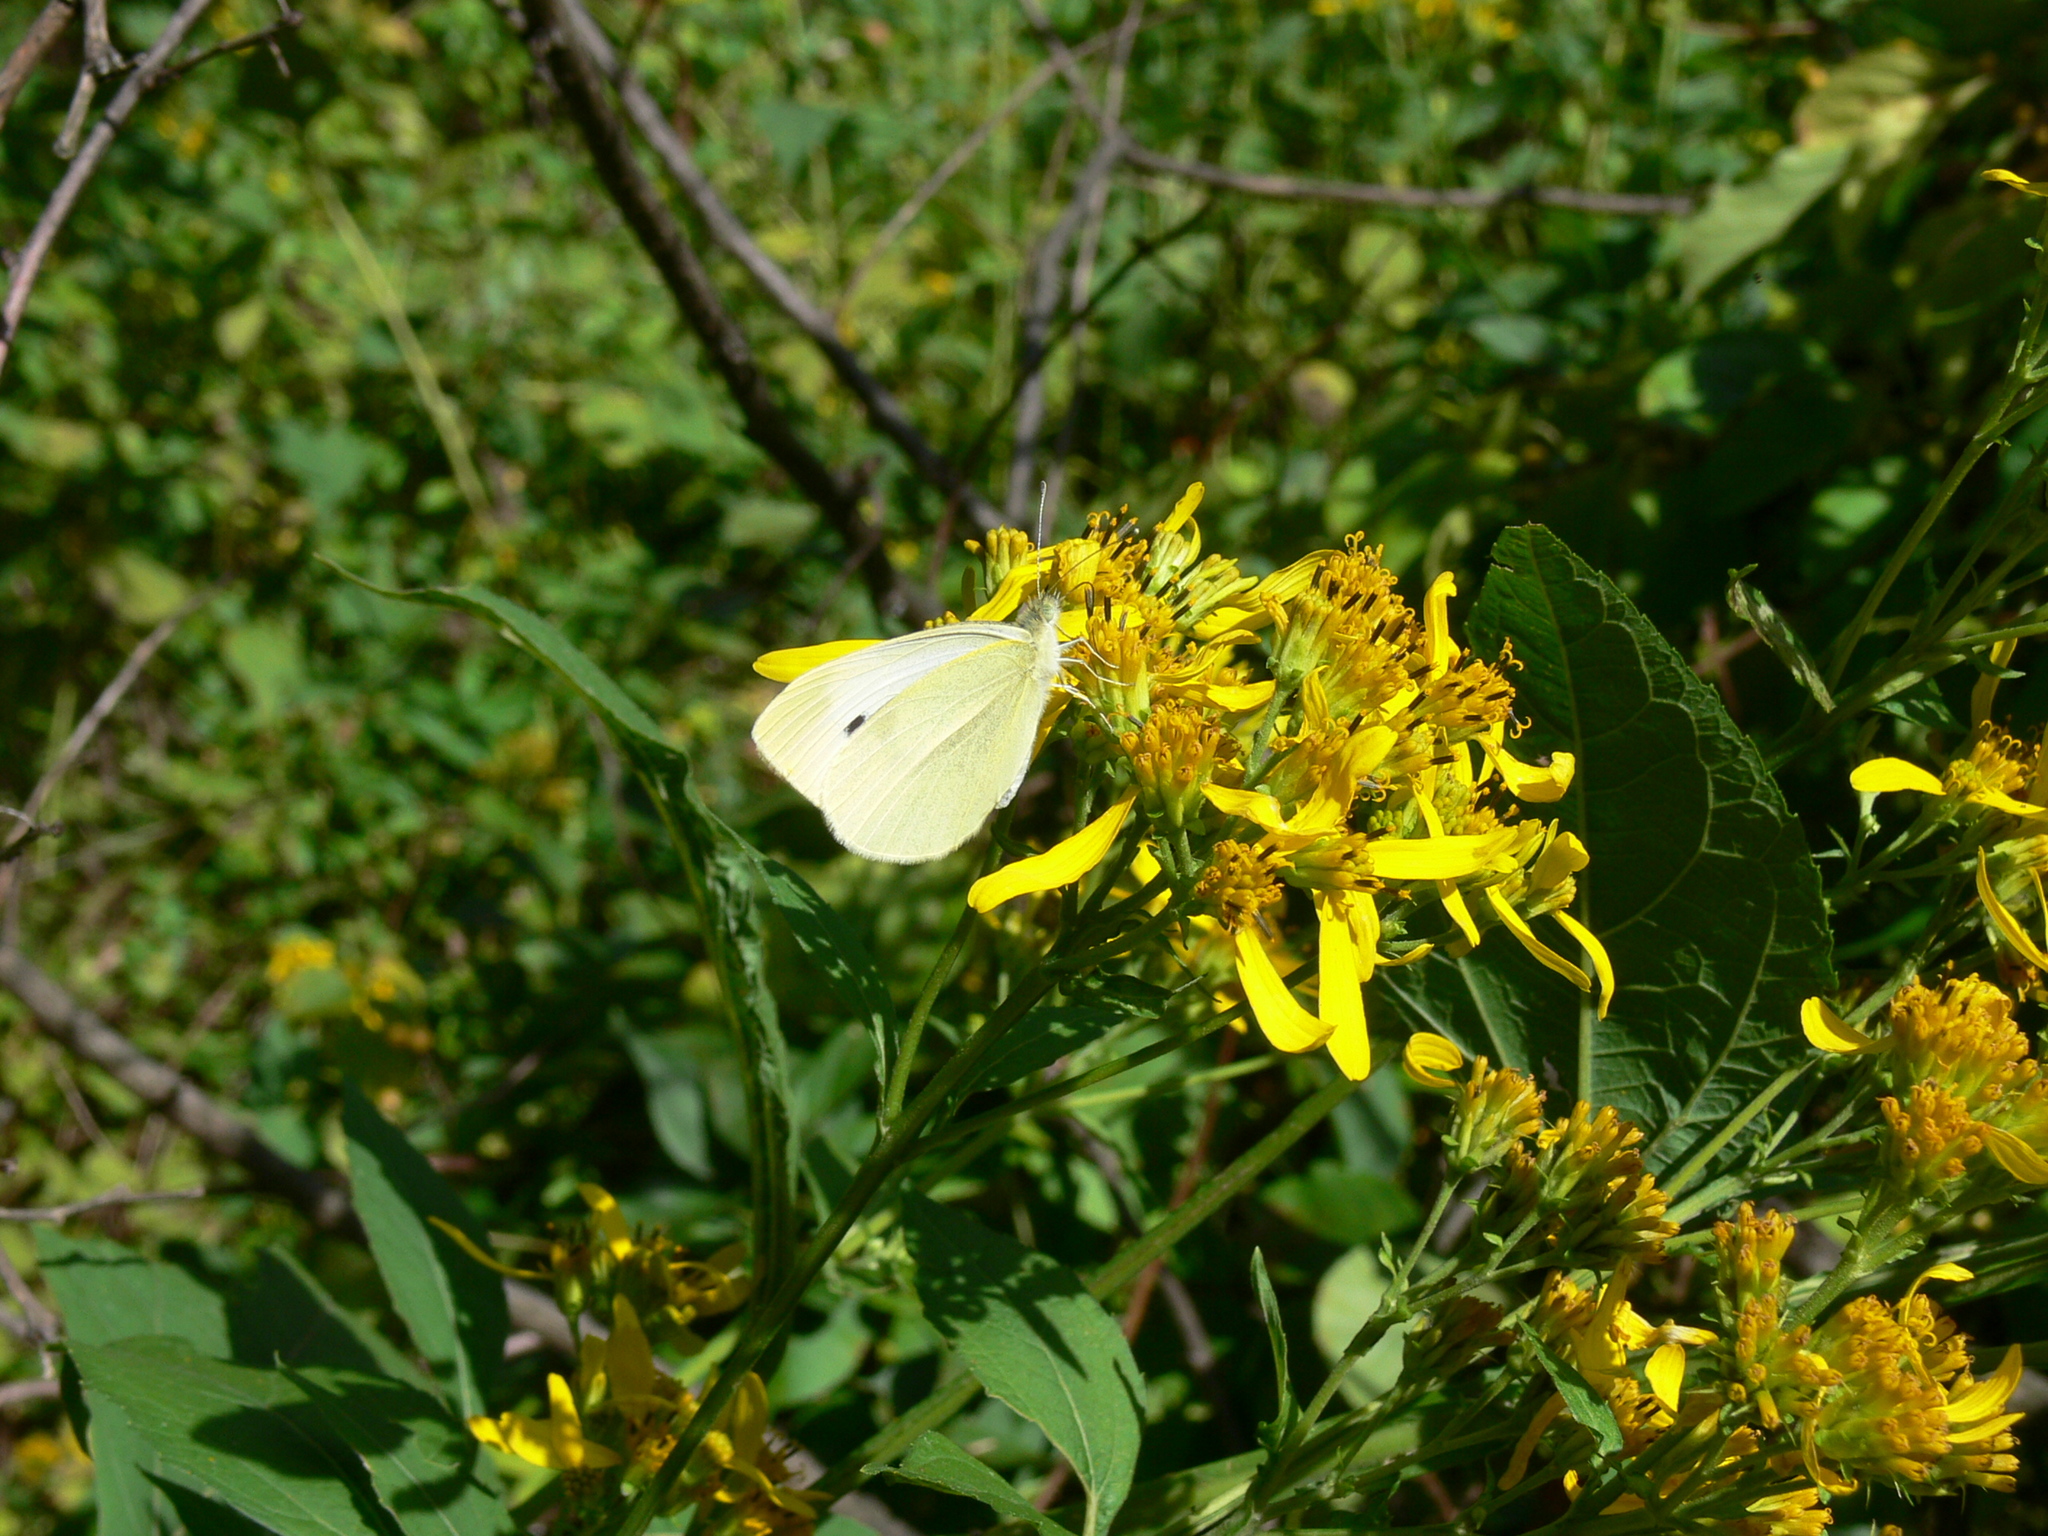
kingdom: Animalia
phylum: Arthropoda
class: Insecta
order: Lepidoptera
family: Pieridae
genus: Pieris
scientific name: Pieris rapae
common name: Small white
